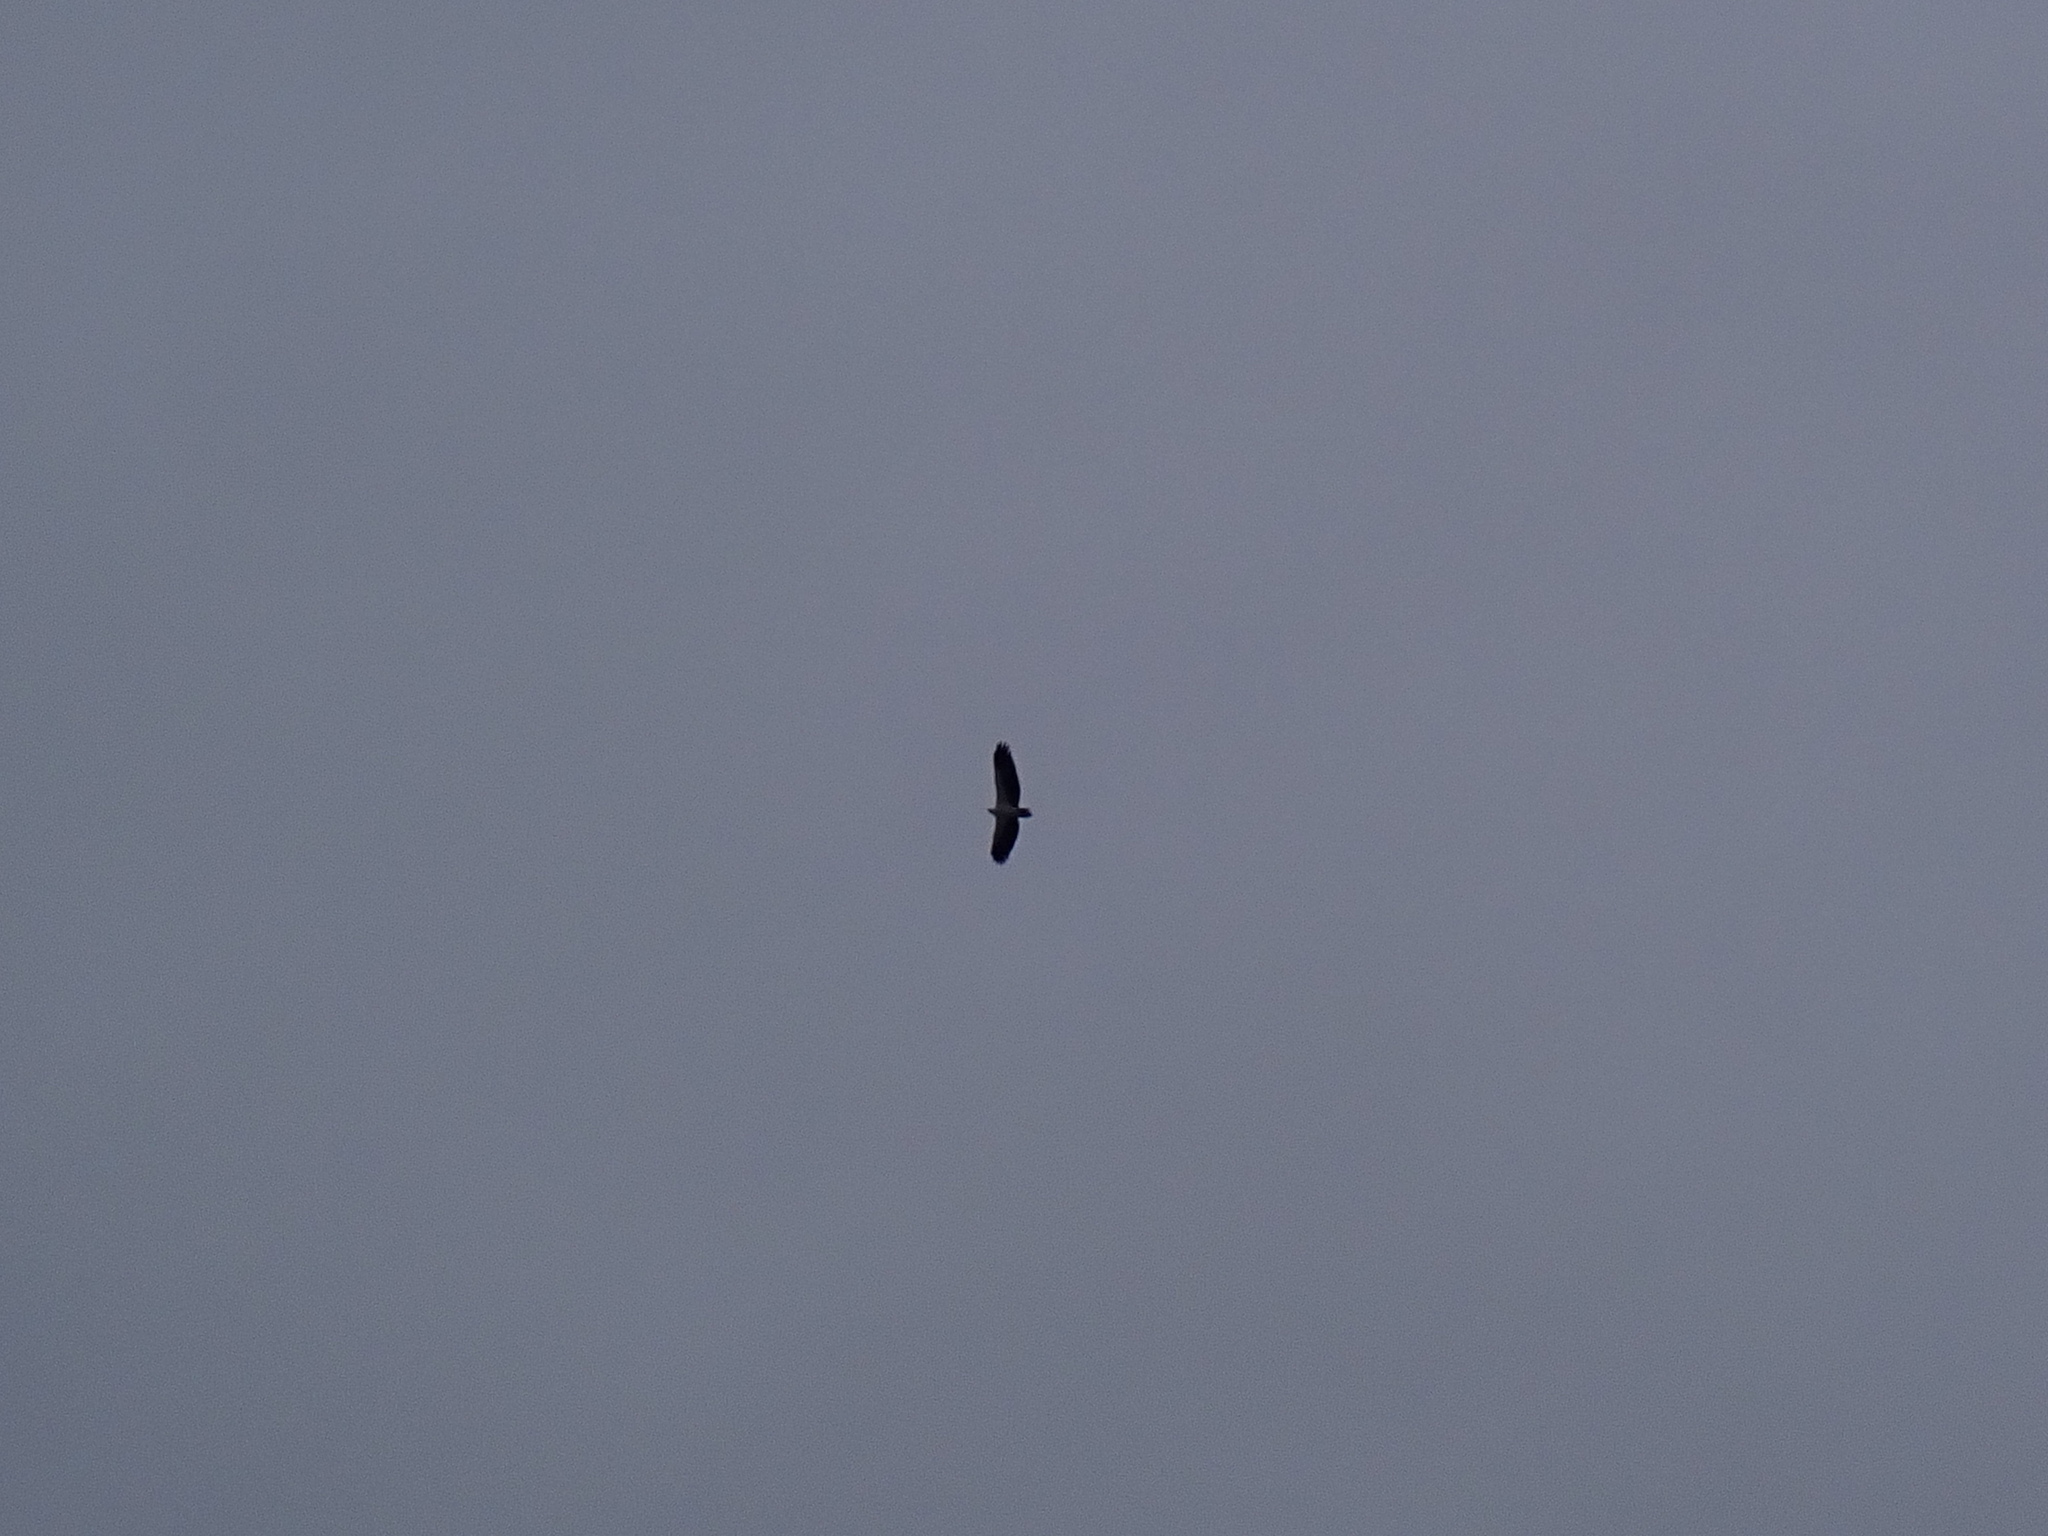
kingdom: Animalia
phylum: Chordata
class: Aves
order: Accipitriformes
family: Accipitridae
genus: Haliaeetus
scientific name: Haliaeetus leucogaster
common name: White-bellied sea eagle
